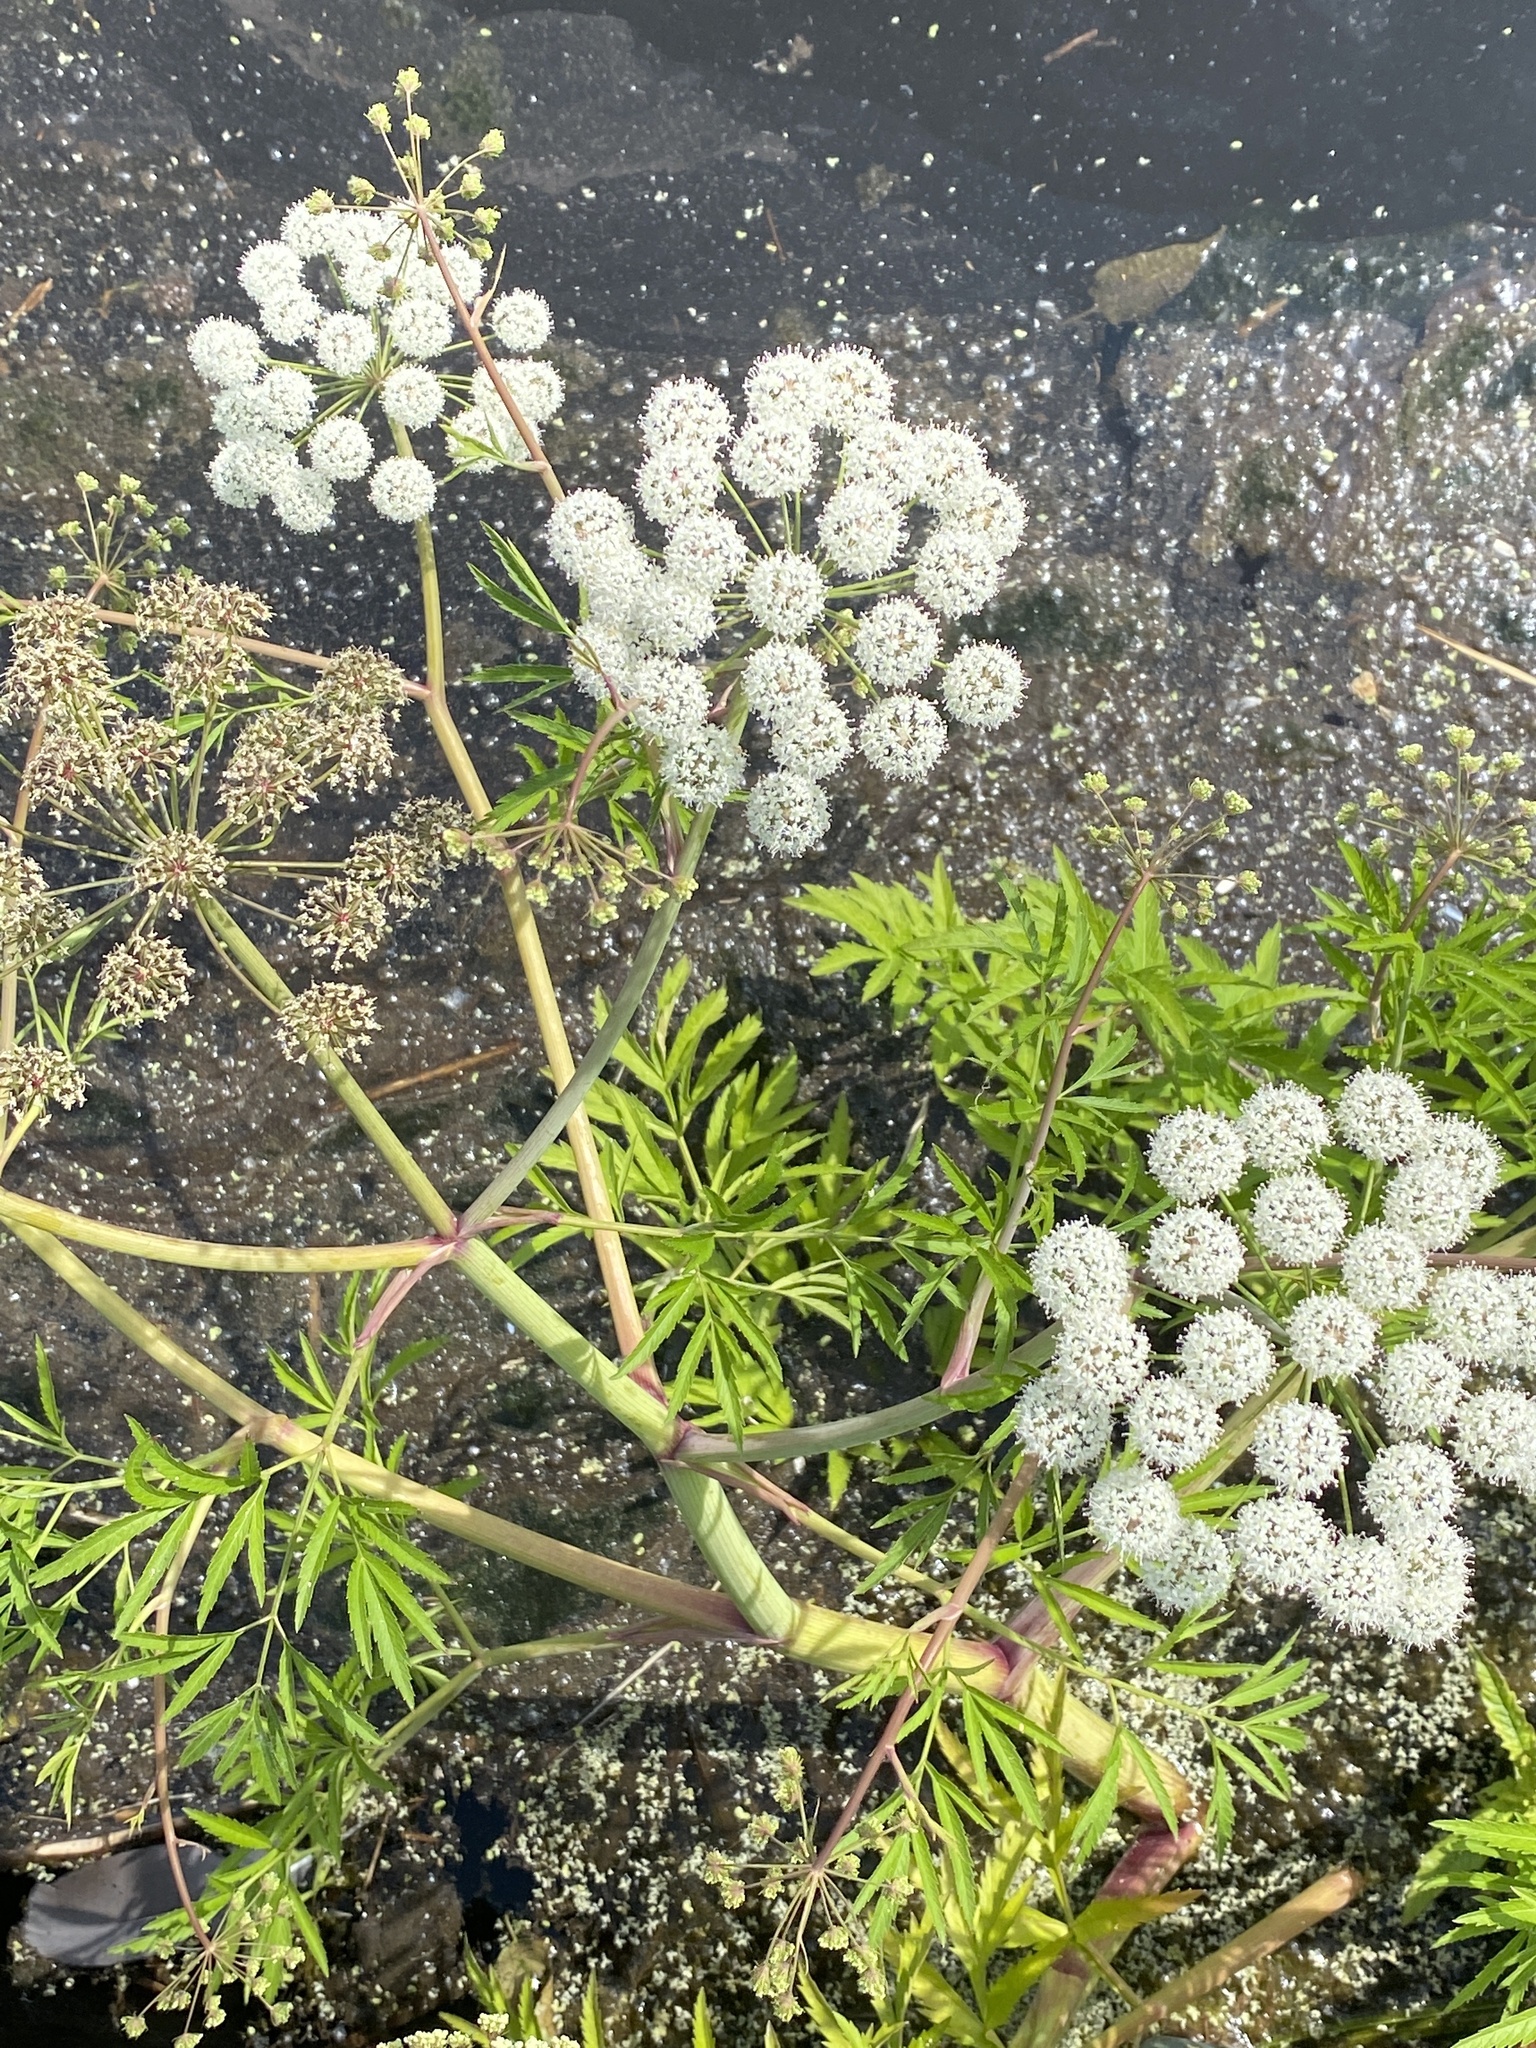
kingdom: Plantae
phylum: Tracheophyta
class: Magnoliopsida
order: Apiales
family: Apiaceae
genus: Cicuta
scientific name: Cicuta virosa
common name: Cowbane
